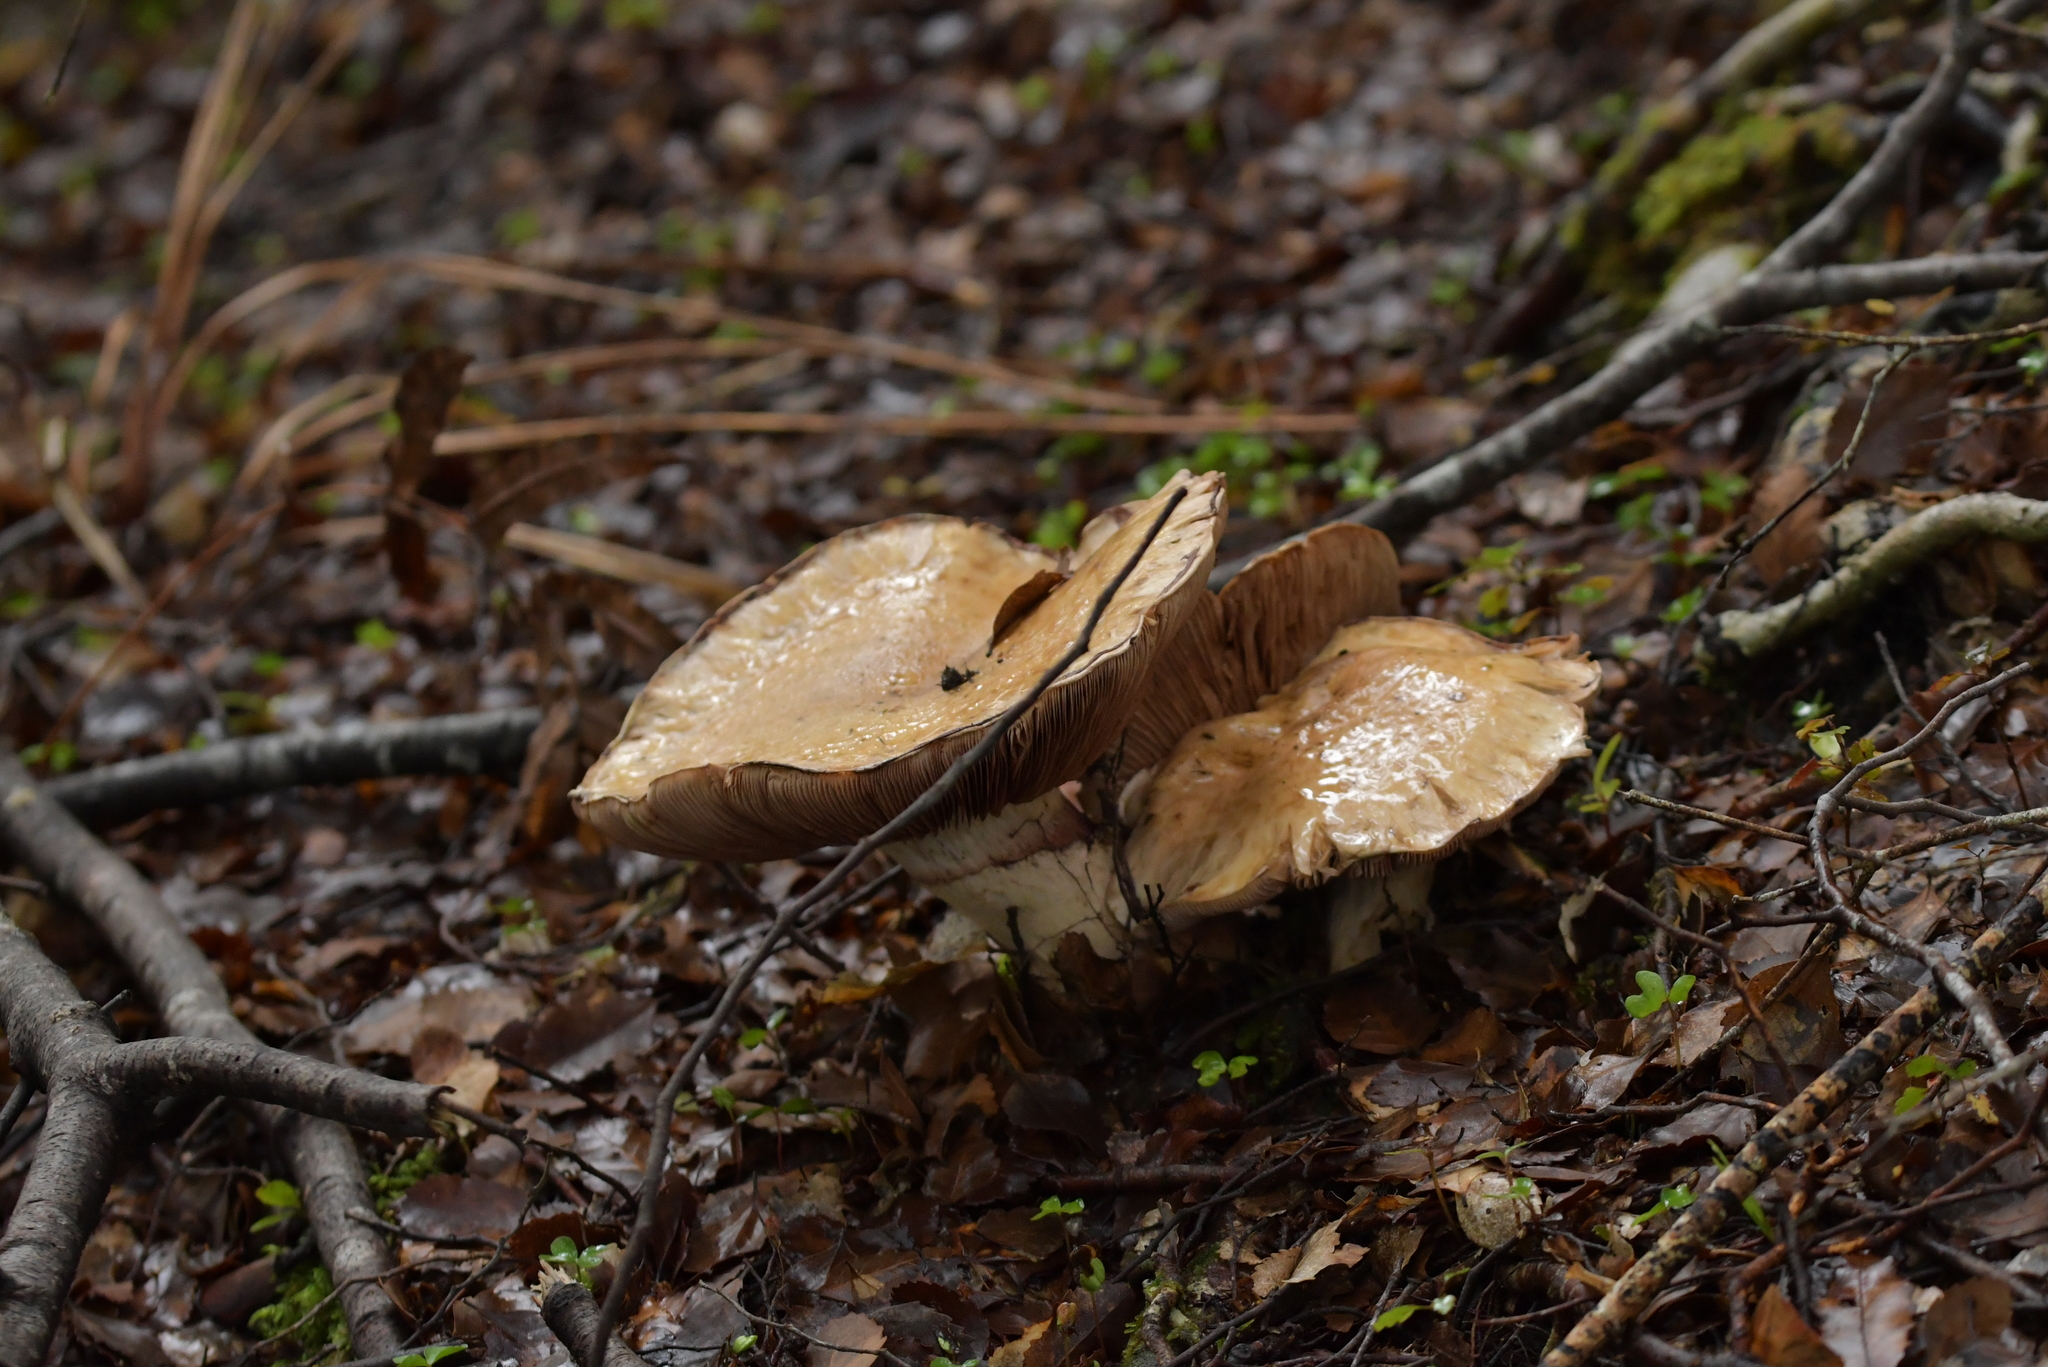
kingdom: Fungi
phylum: Basidiomycota
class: Agaricomycetes
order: Agaricales
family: Hymenogastraceae
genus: Hebeloma
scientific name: Hebeloma victoriense
